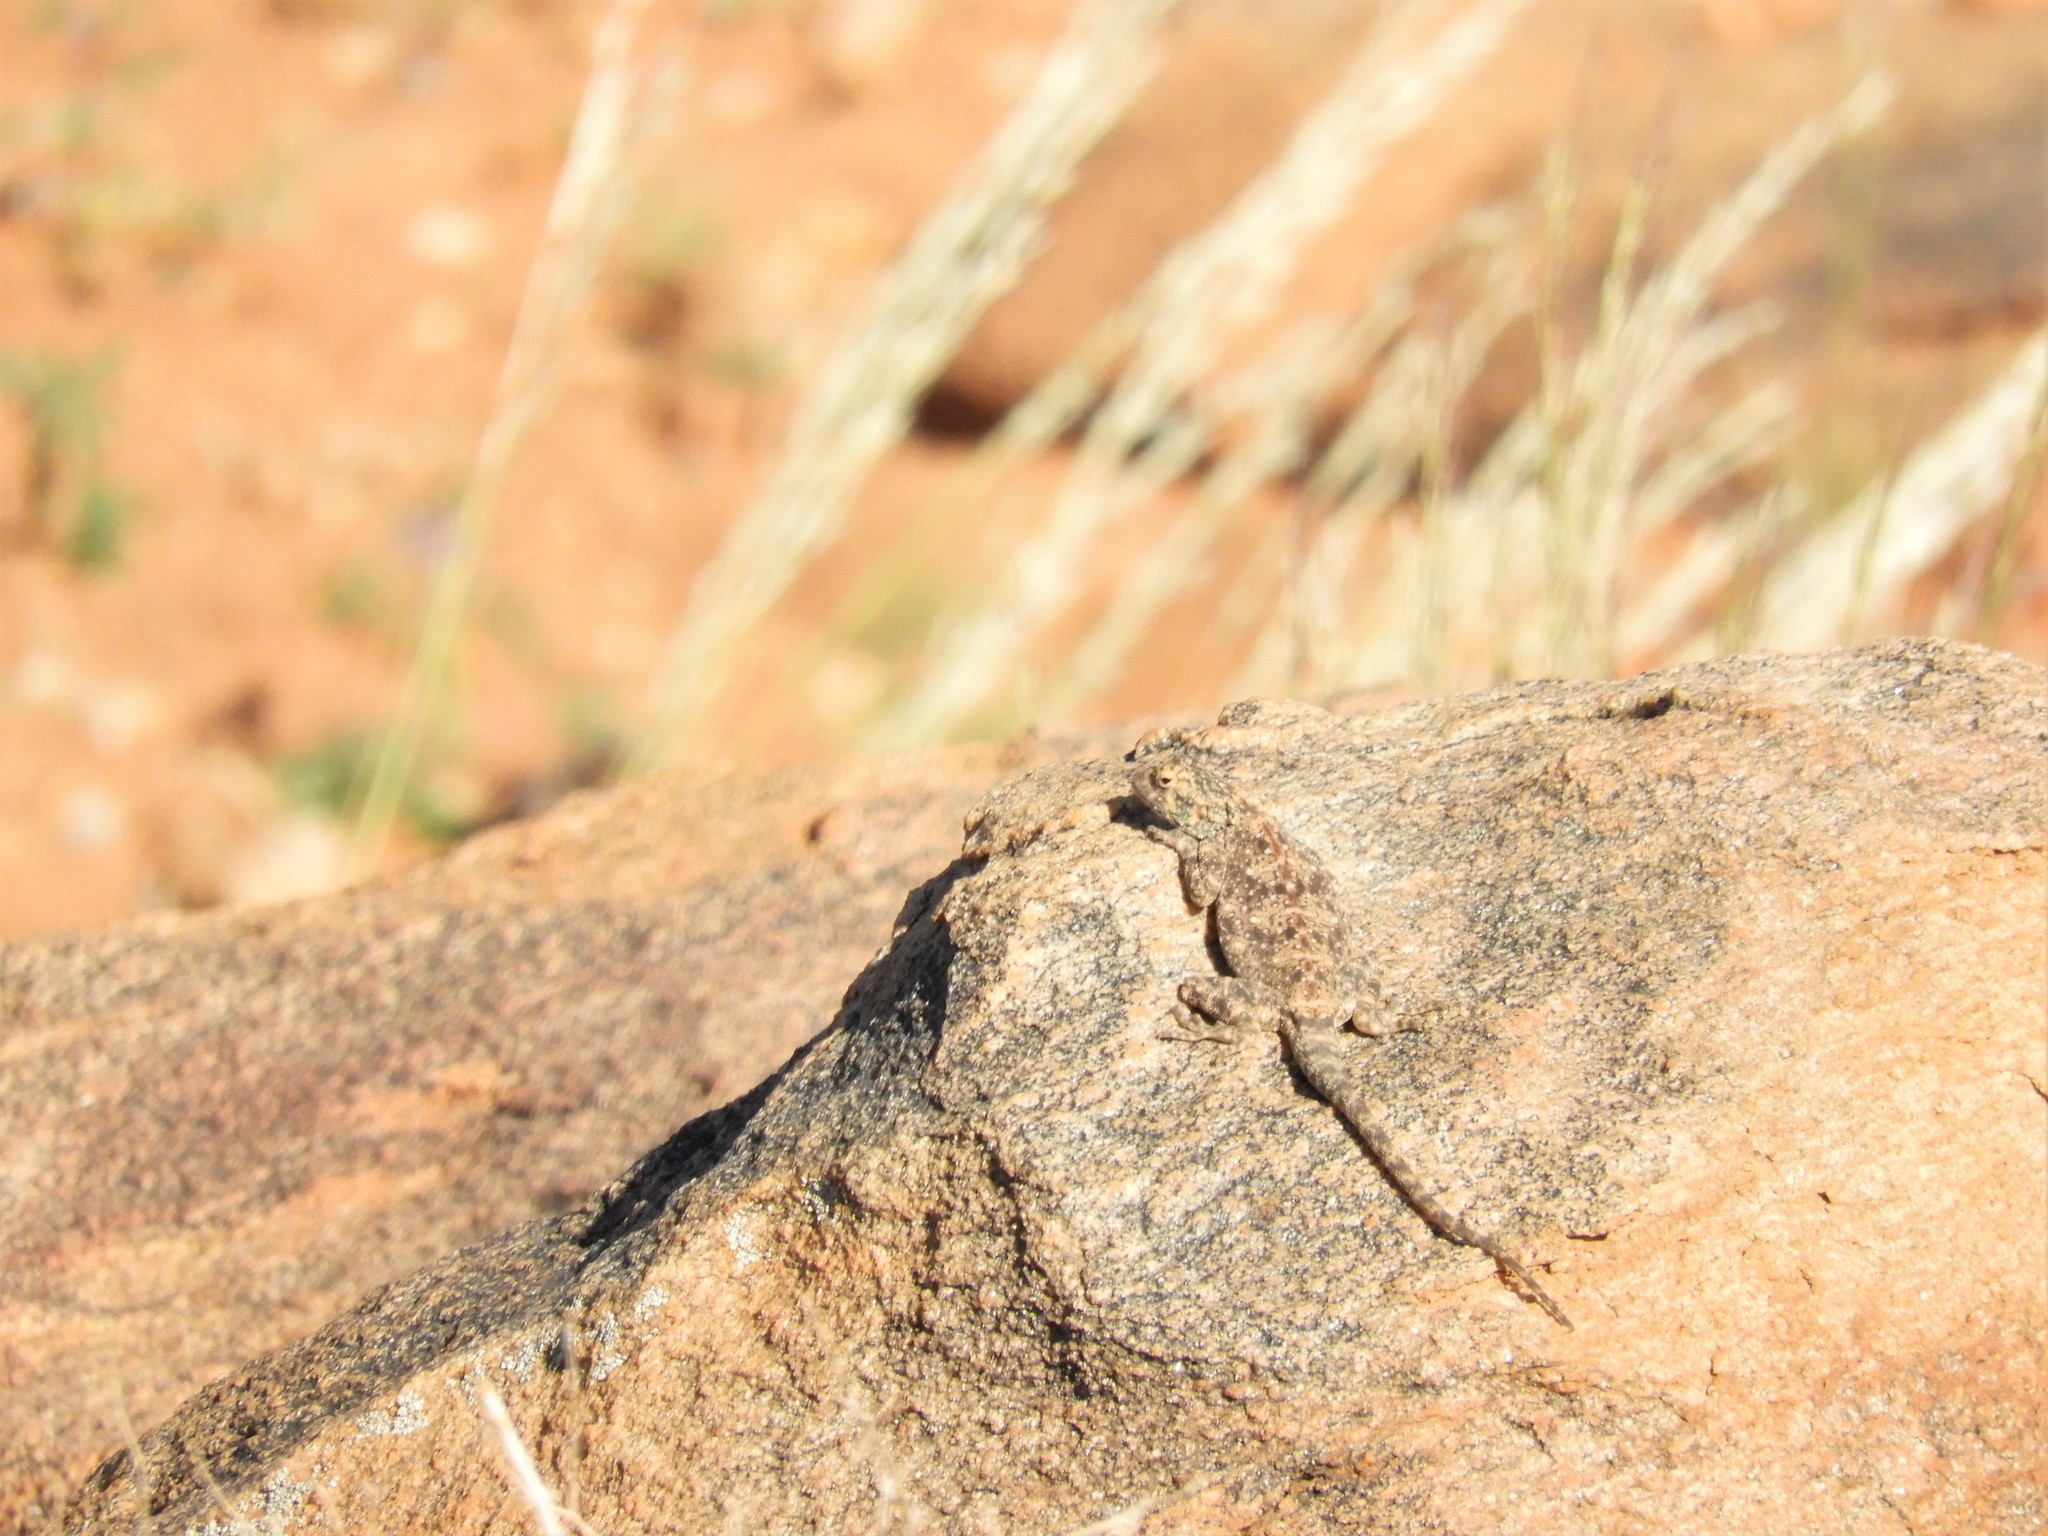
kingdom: Animalia
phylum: Chordata
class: Squamata
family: Agamidae
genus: Agama
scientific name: Agama atra
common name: Southern african rock agama
